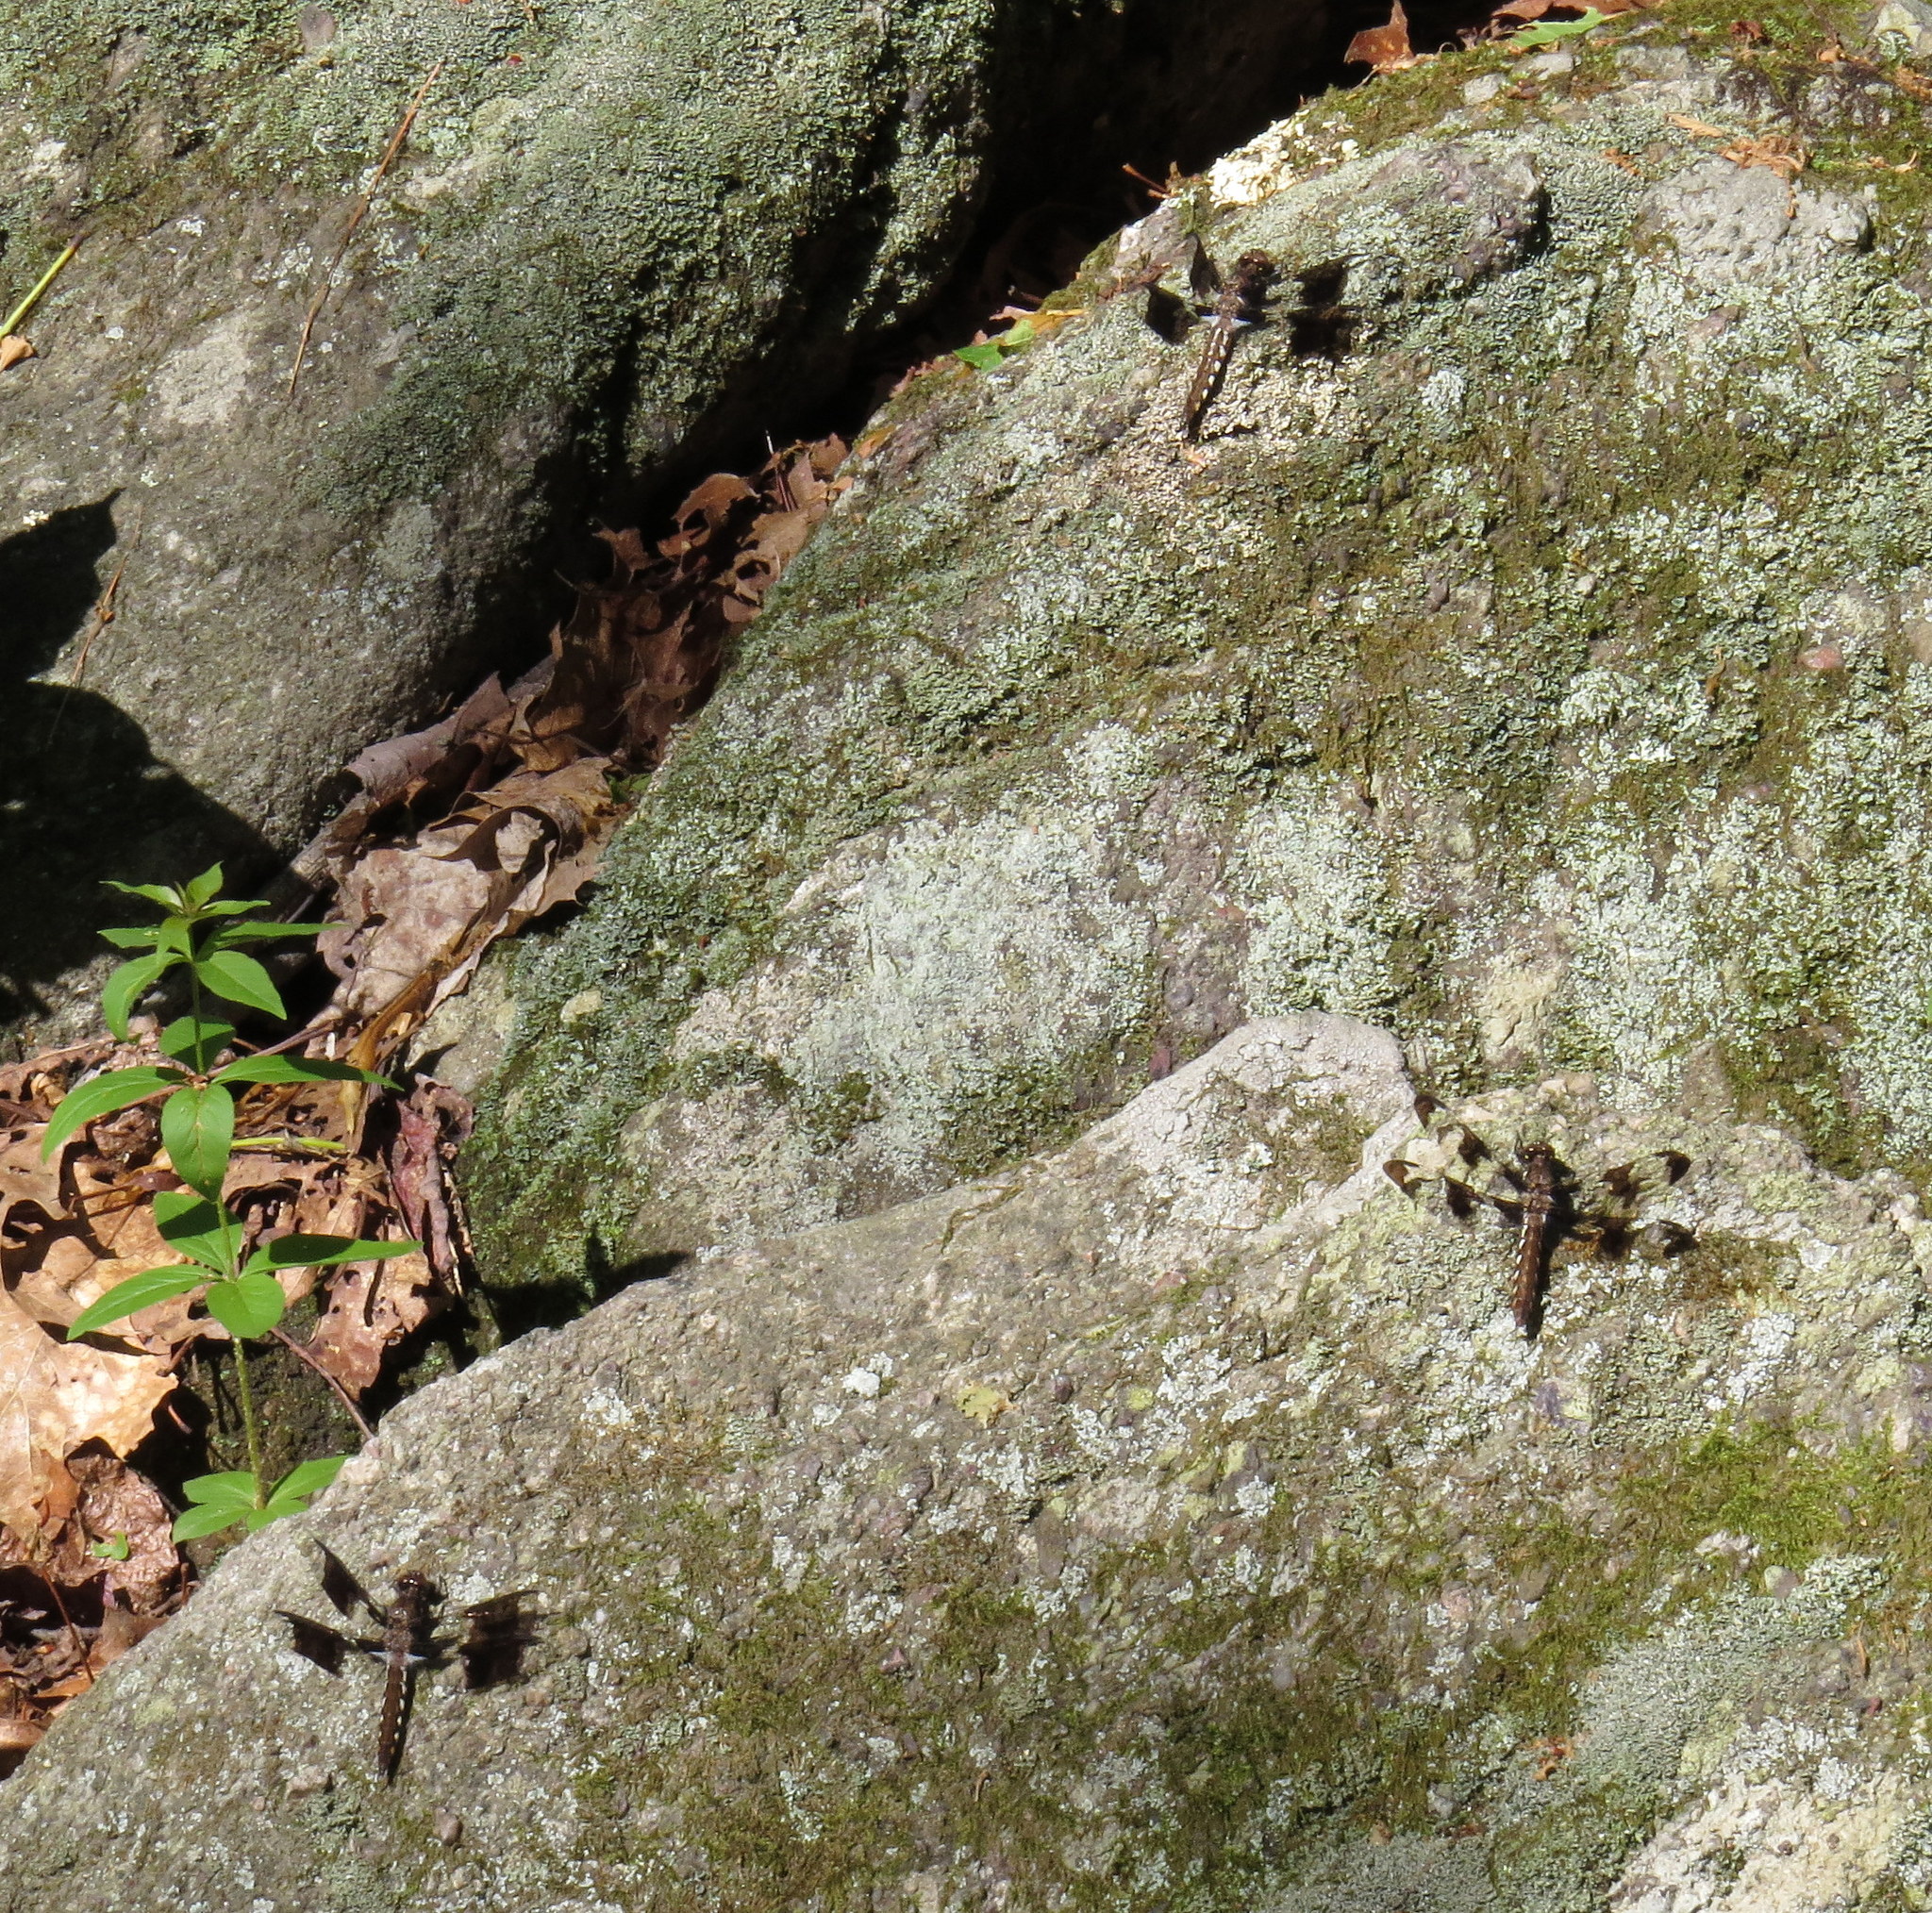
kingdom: Animalia
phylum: Arthropoda
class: Insecta
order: Odonata
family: Libellulidae
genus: Plathemis
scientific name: Plathemis lydia
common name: Common whitetail
